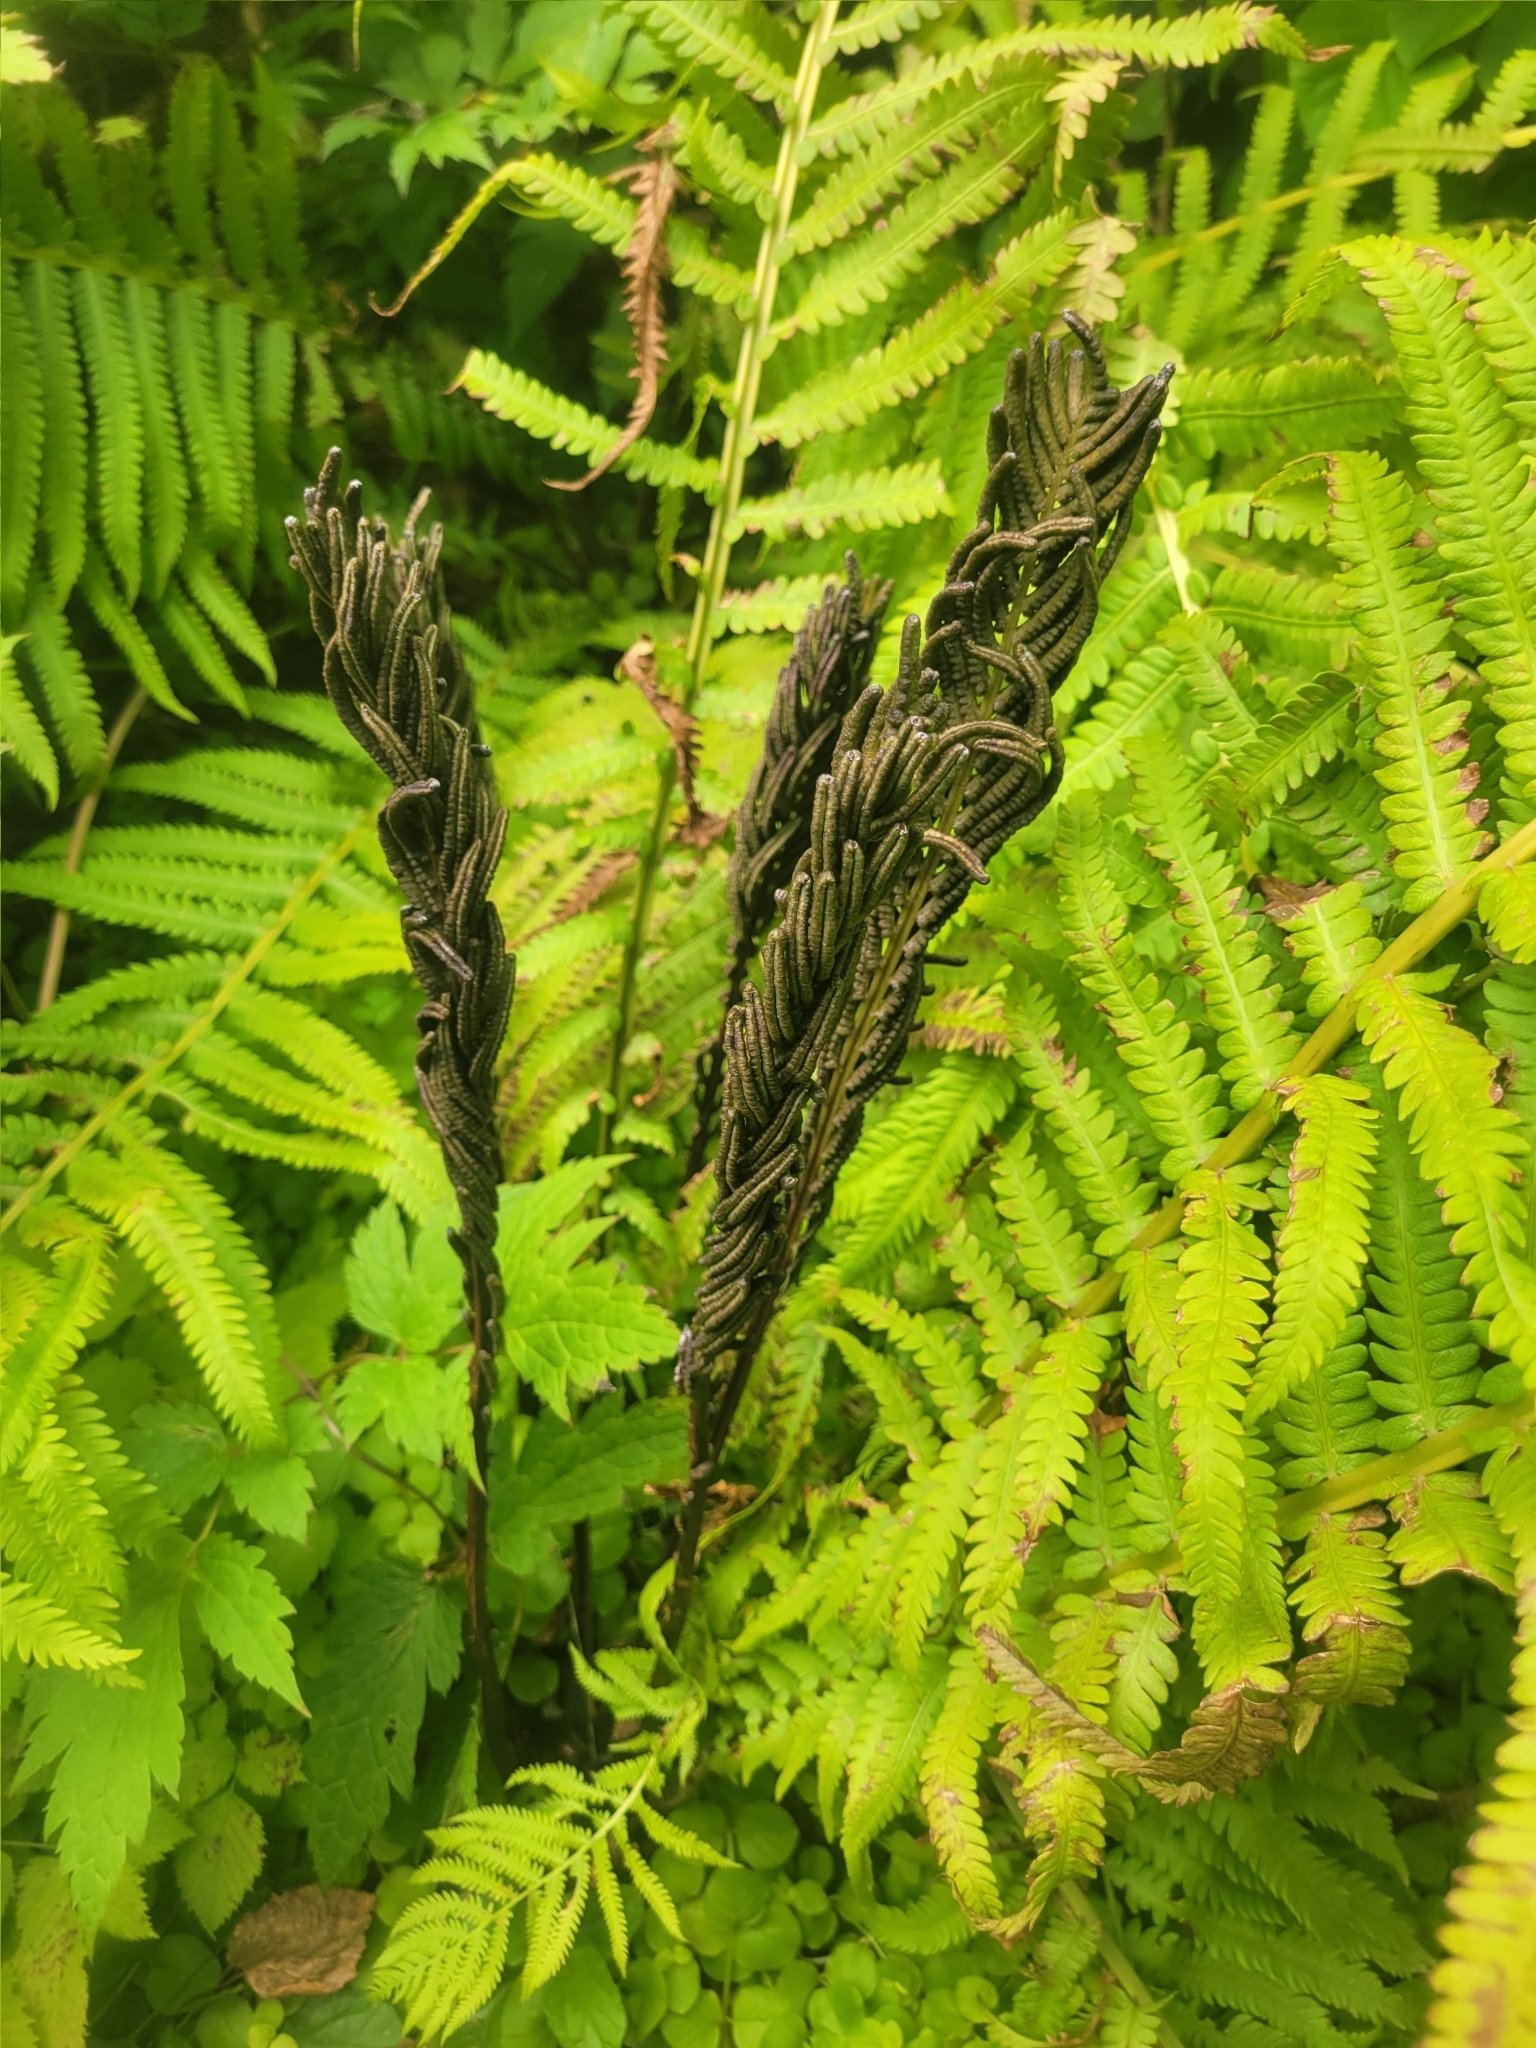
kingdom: Plantae
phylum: Tracheophyta
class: Polypodiopsida
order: Polypodiales
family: Onocleaceae
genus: Matteuccia
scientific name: Matteuccia struthiopteris
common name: Ostrich fern
